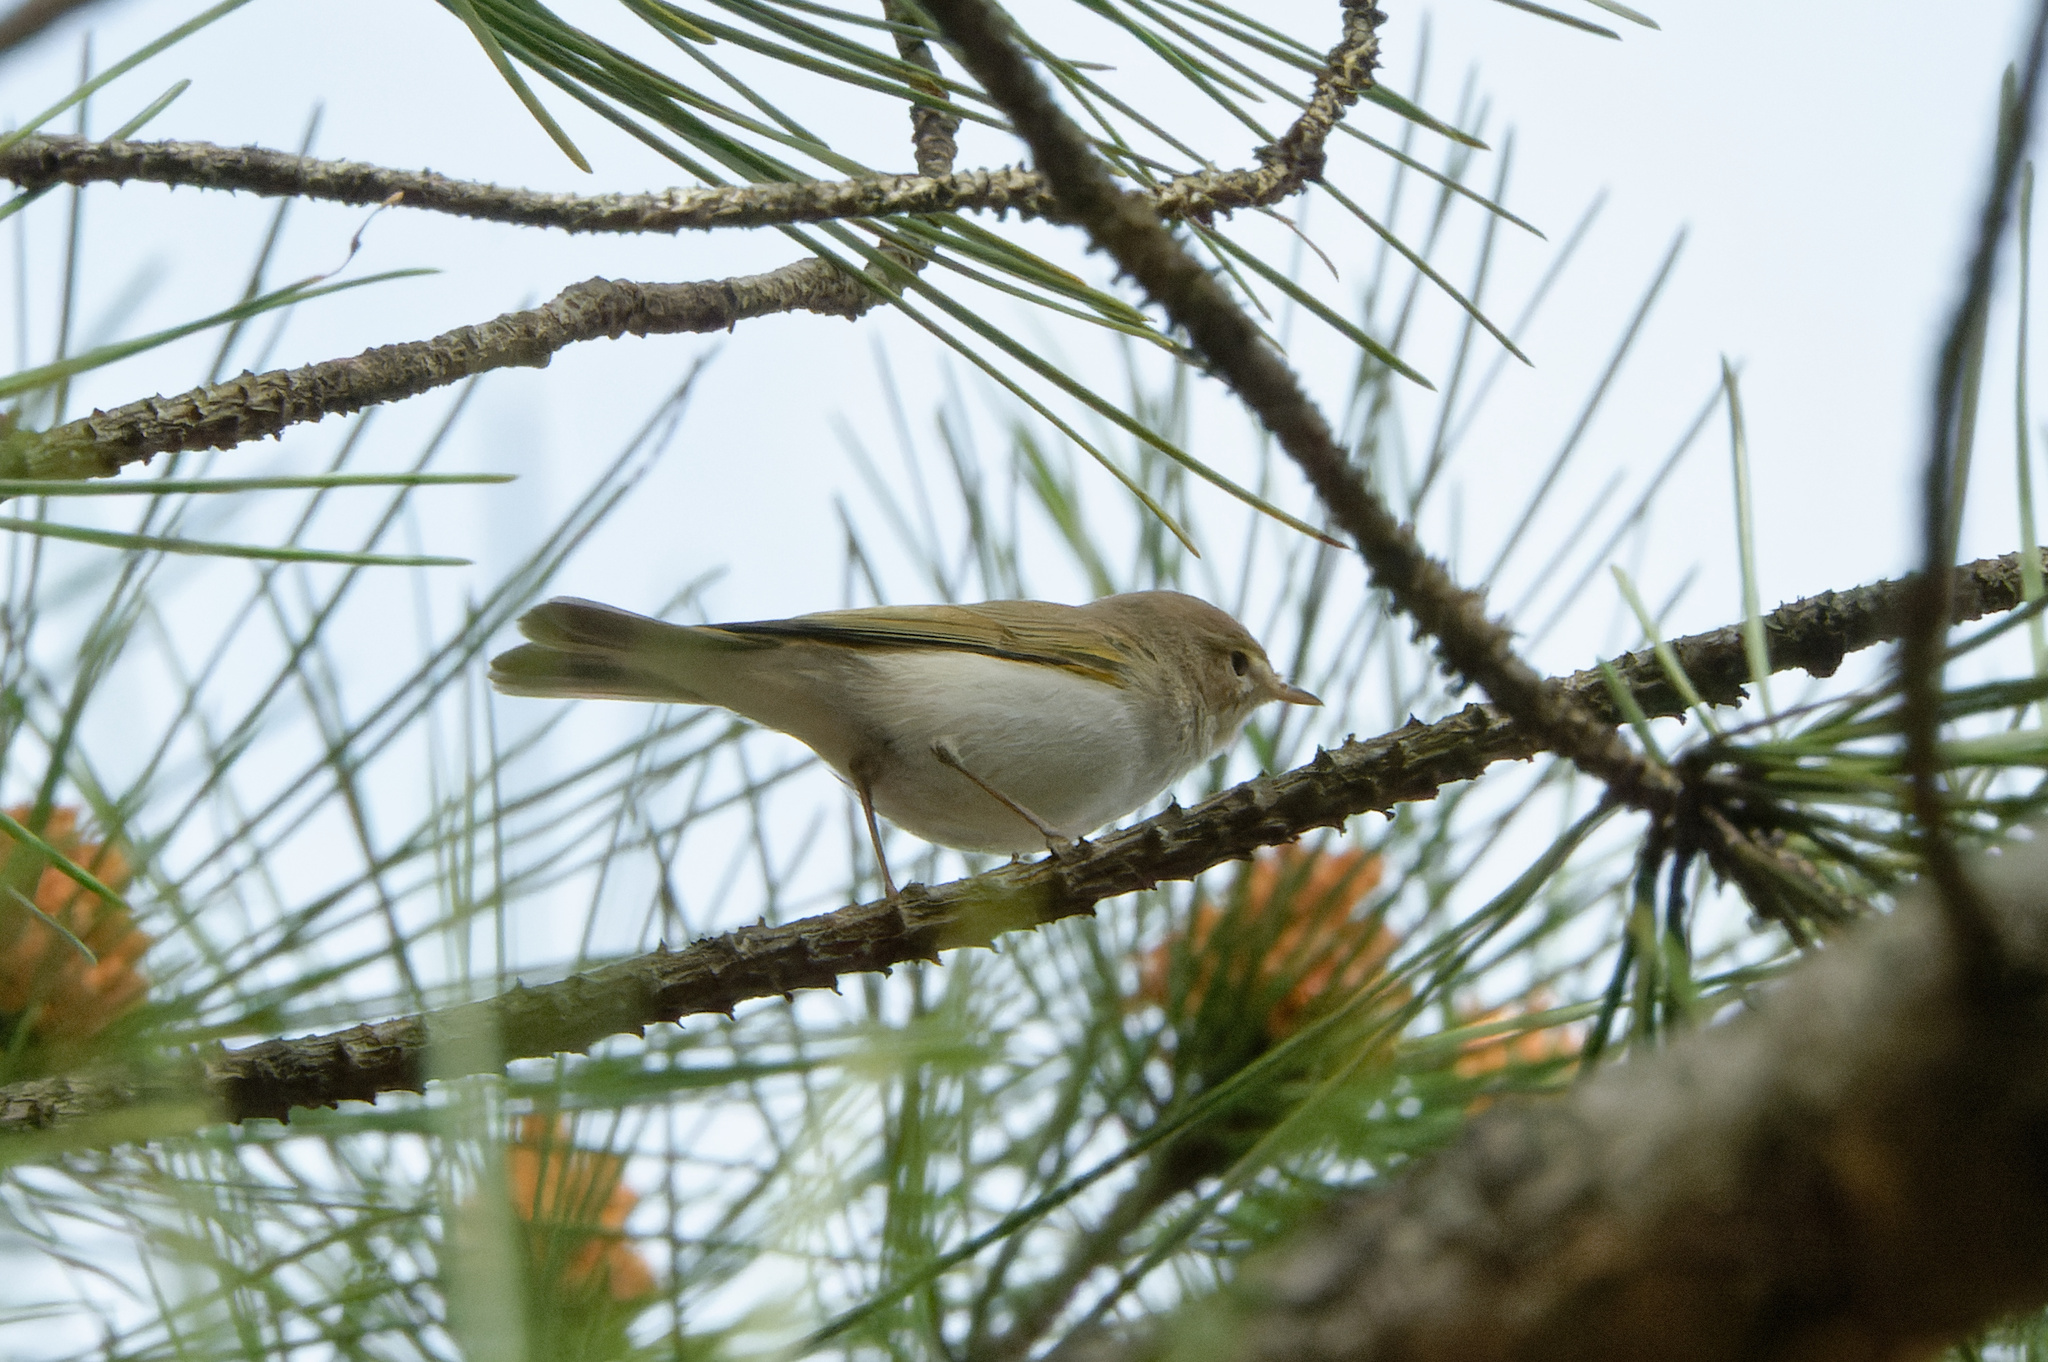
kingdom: Animalia
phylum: Chordata
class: Aves
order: Passeriformes
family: Phylloscopidae
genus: Phylloscopus
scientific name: Phylloscopus bonelli
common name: Western bonelli's warbler
